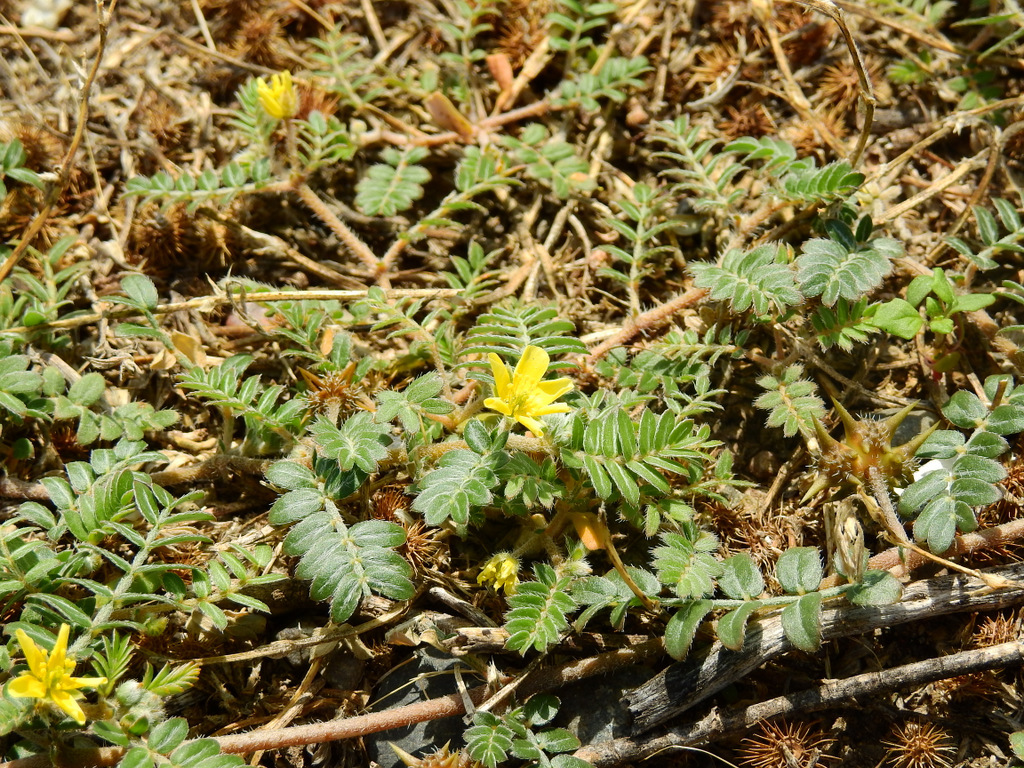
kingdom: Plantae
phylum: Tracheophyta
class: Magnoliopsida
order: Zygophyllales
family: Zygophyllaceae
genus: Tribulus
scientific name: Tribulus terrestris
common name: Puncturevine
